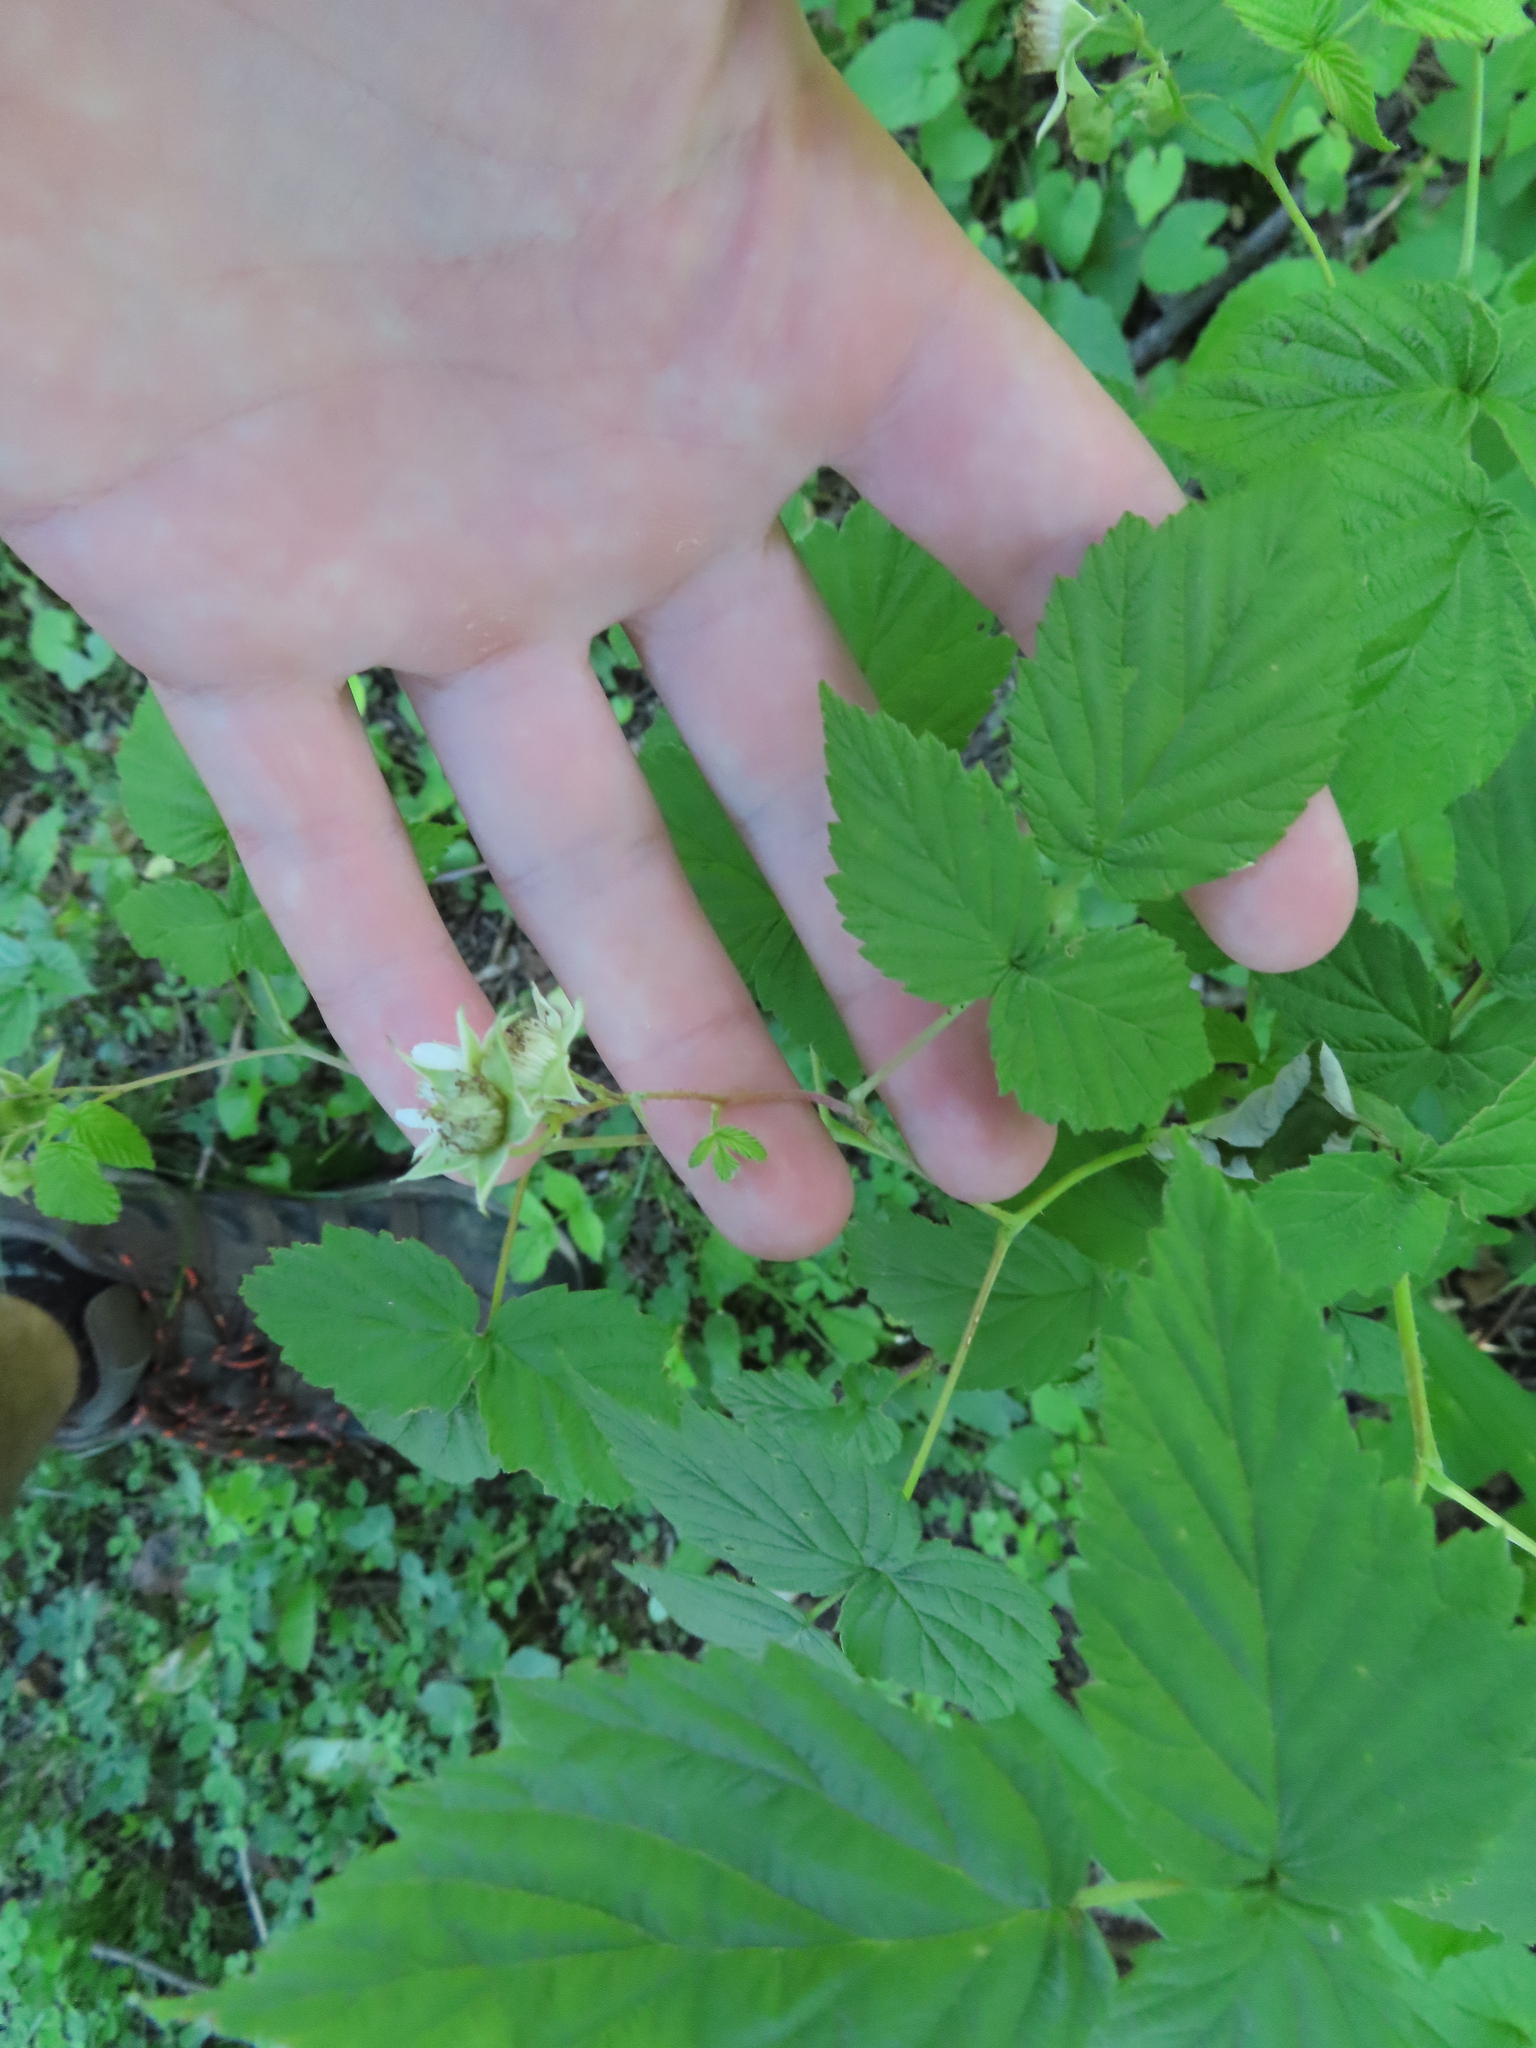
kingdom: Plantae
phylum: Tracheophyta
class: Magnoliopsida
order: Rosales
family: Rosaceae
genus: Rubus
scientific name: Rubus occidentalis
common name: Black raspberry
